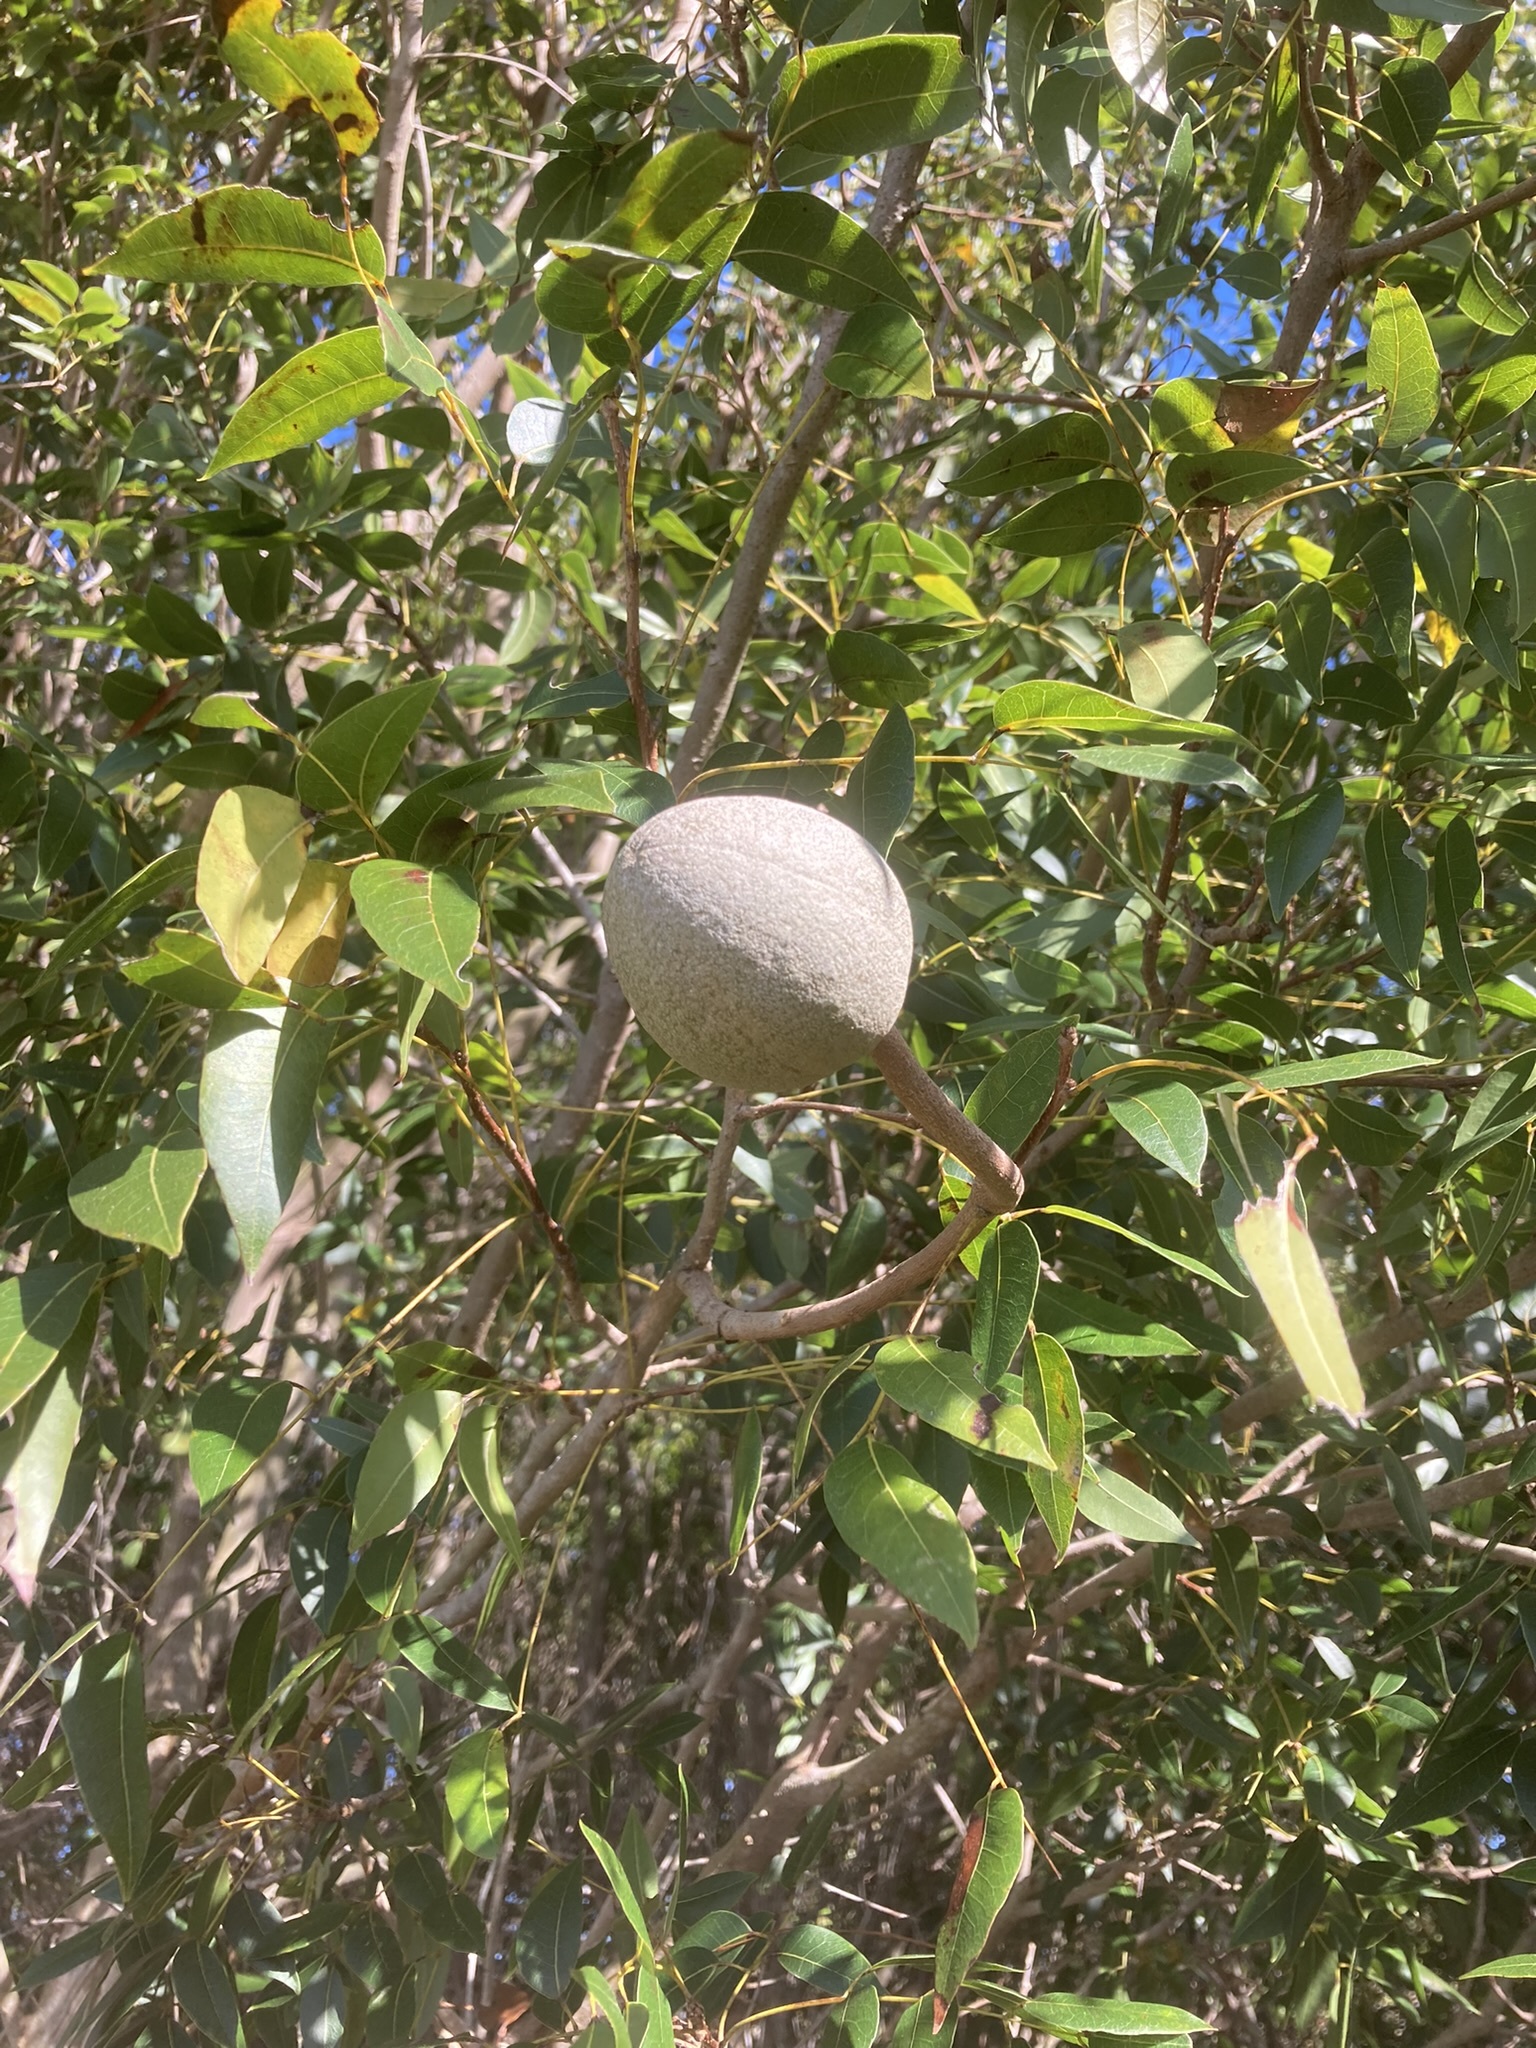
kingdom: Plantae
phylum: Tracheophyta
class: Magnoliopsida
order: Sapindales
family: Meliaceae
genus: Swietenia
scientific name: Swietenia mahagoni
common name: West indian mahogany
